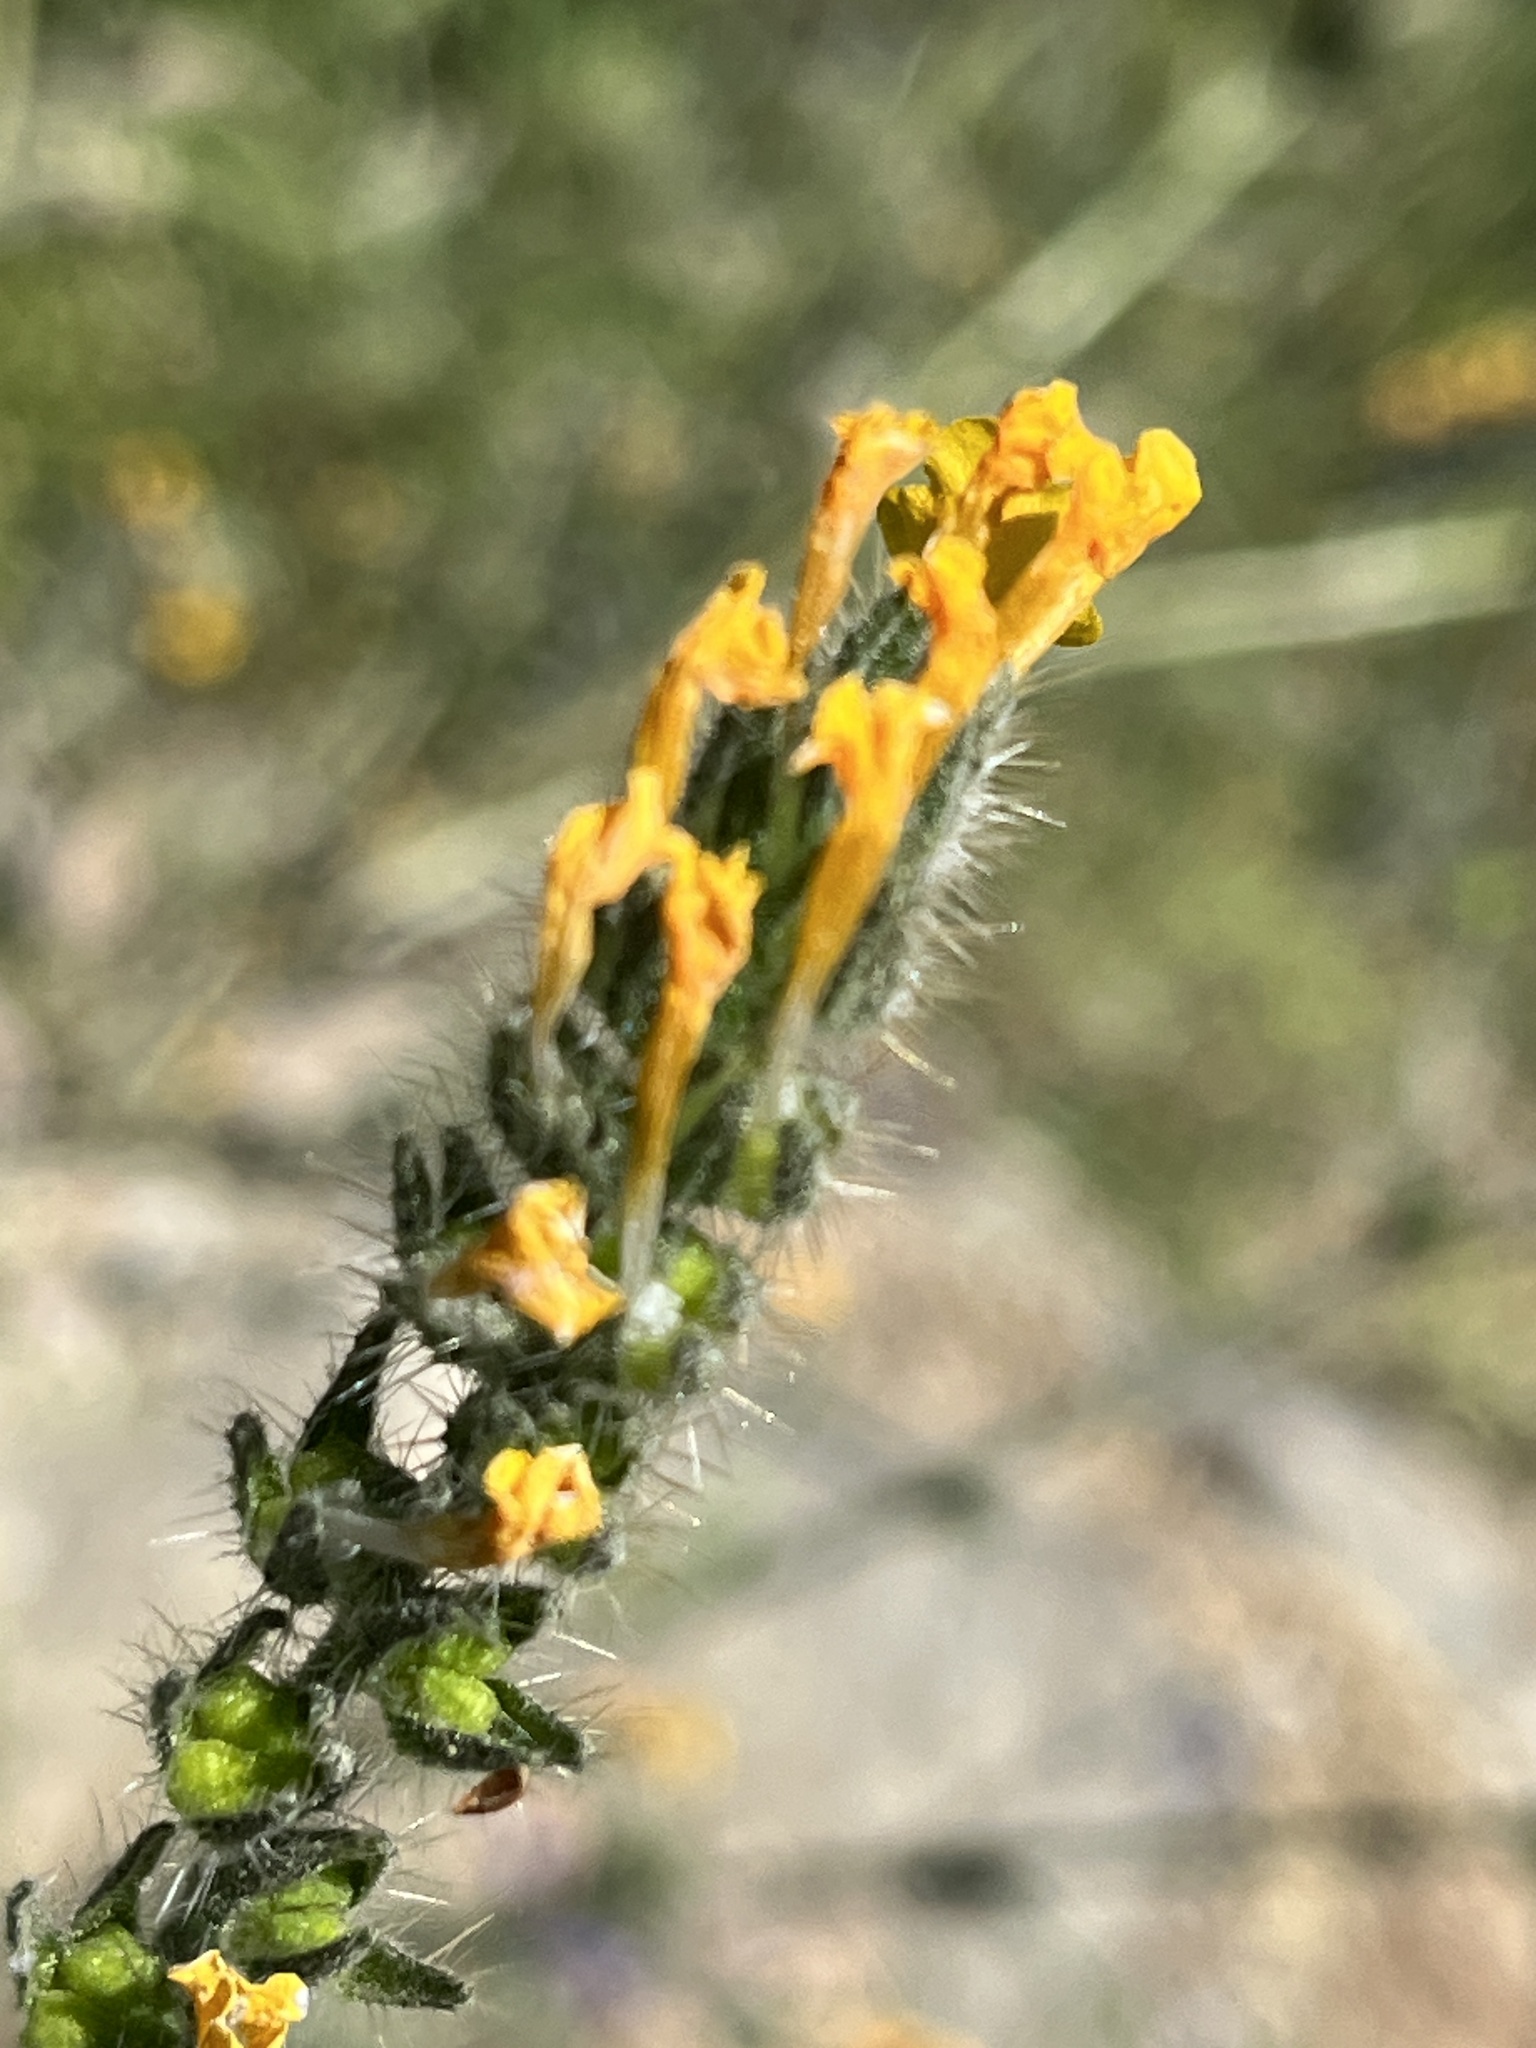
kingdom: Plantae
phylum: Tracheophyta
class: Magnoliopsida
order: Boraginales
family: Boraginaceae
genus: Amsinckia
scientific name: Amsinckia menziesii
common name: Menzies' fiddleneck
